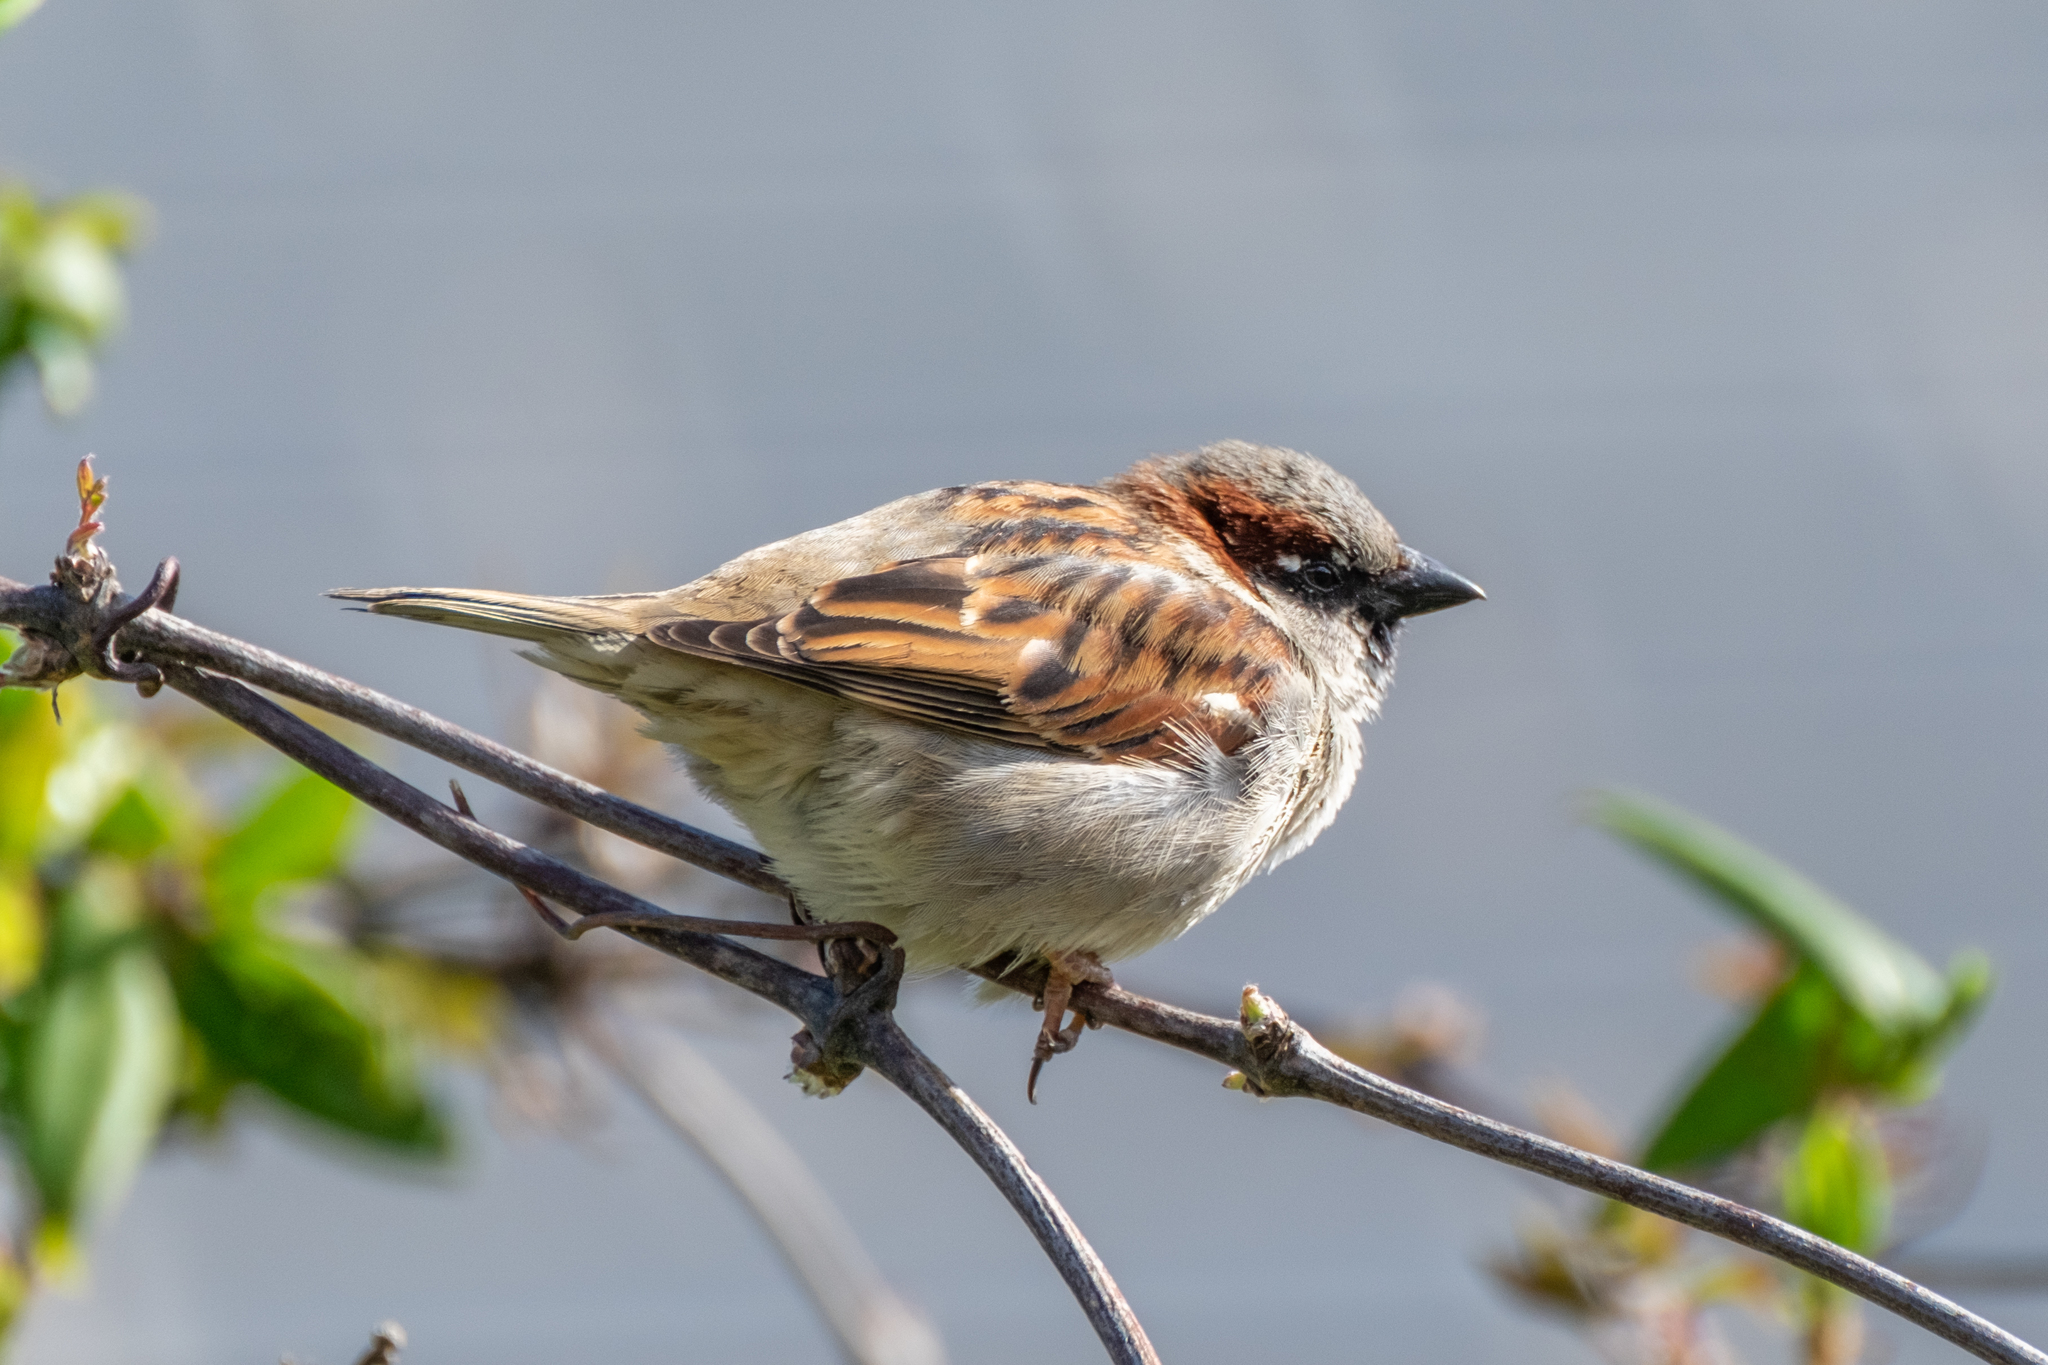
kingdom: Animalia
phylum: Chordata
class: Aves
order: Passeriformes
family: Passeridae
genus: Passer
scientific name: Passer domesticus
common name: House sparrow
